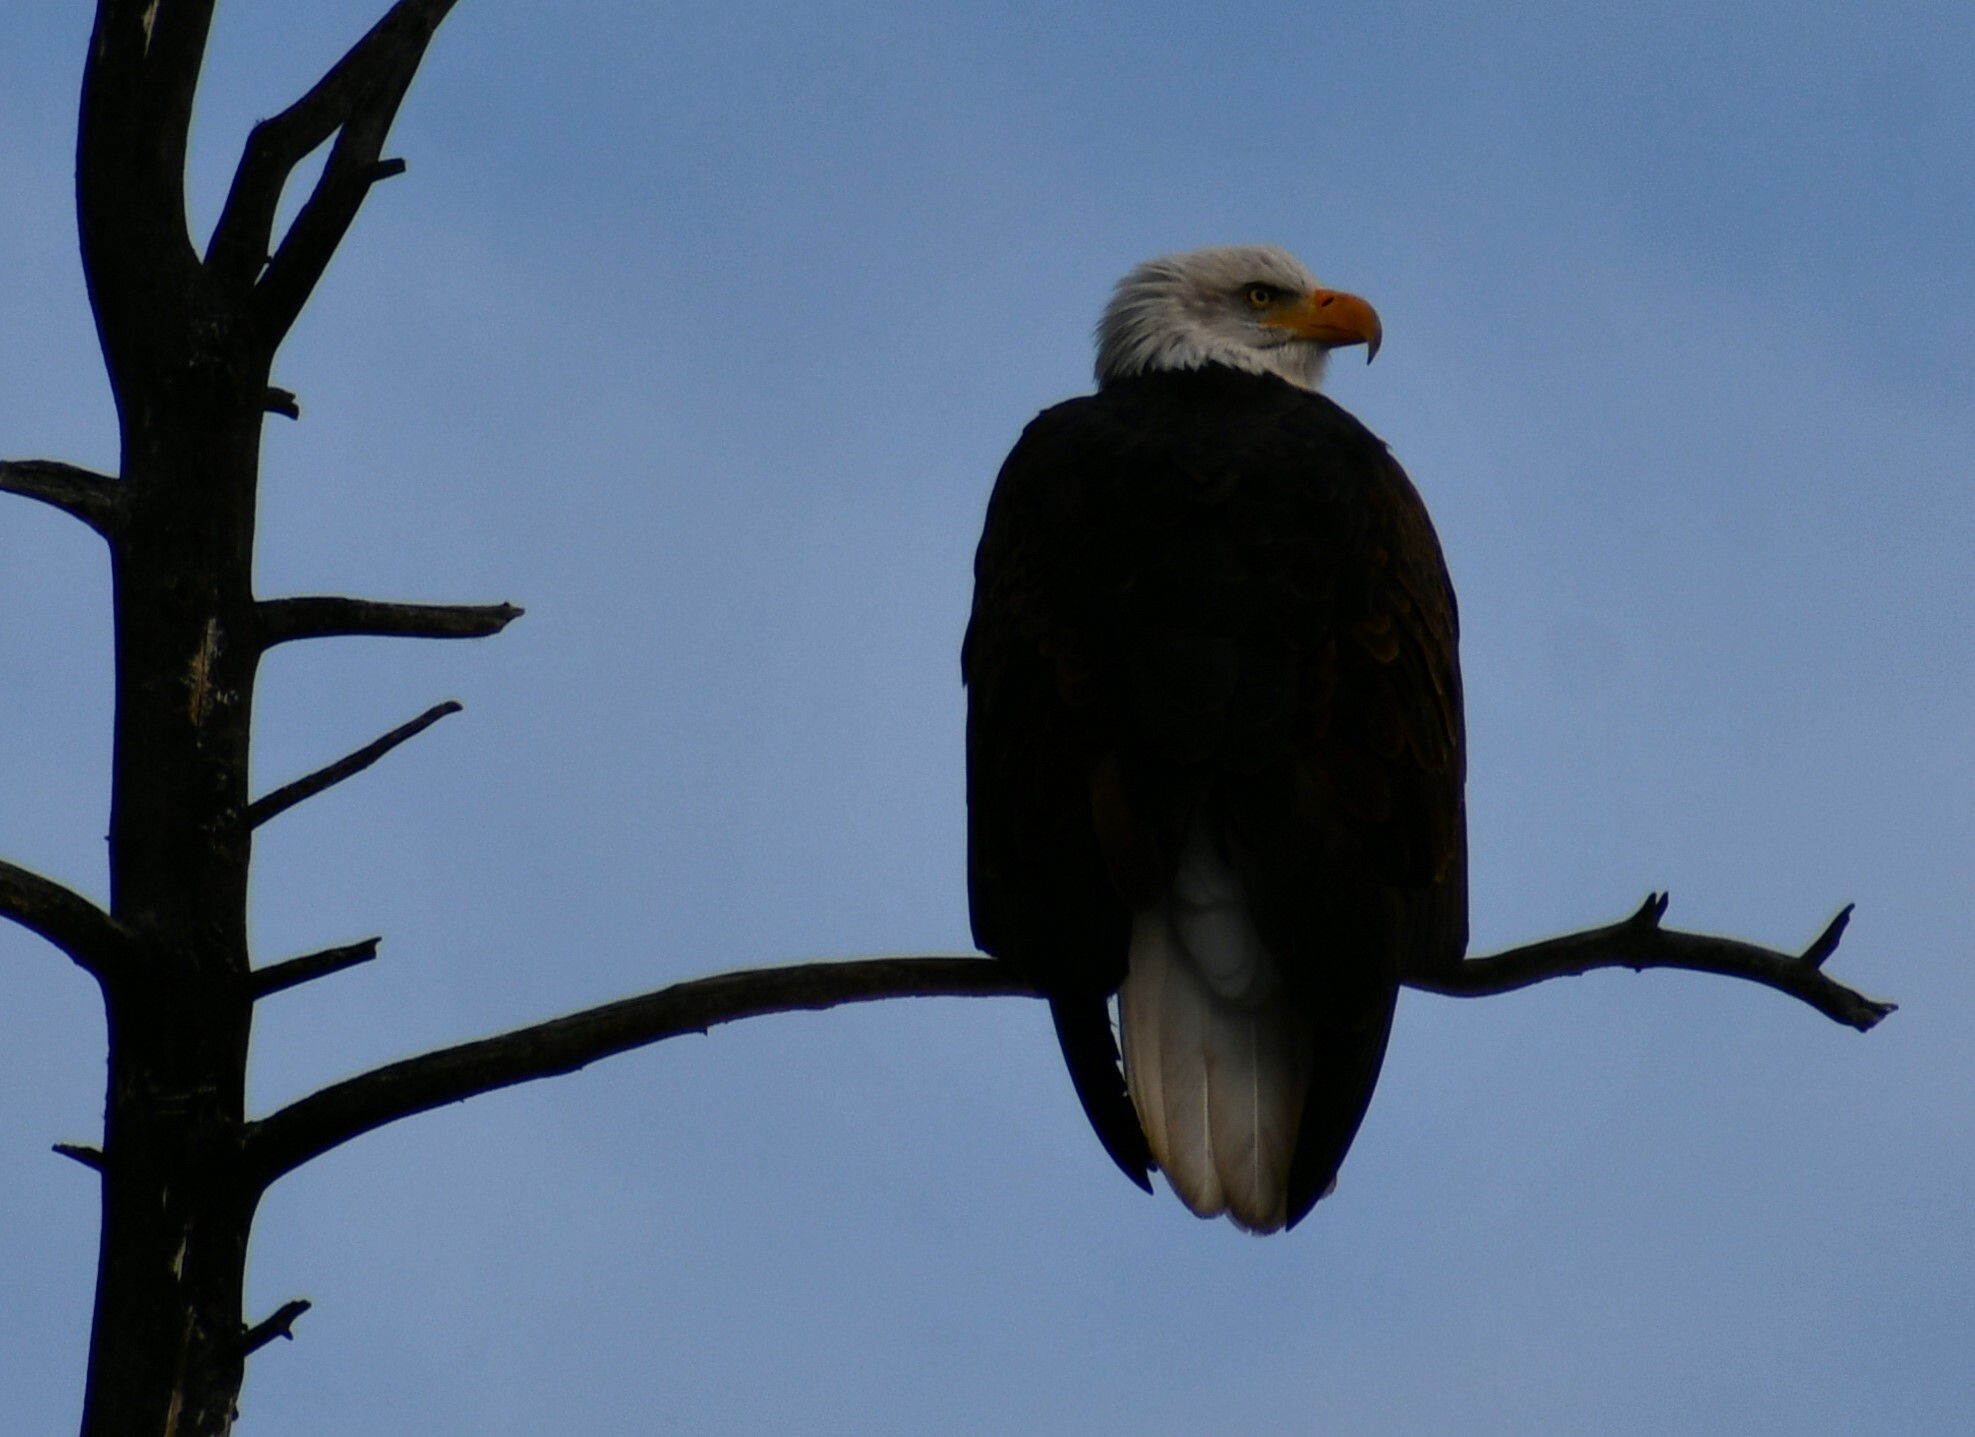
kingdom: Animalia
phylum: Chordata
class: Aves
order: Accipitriformes
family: Accipitridae
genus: Haliaeetus
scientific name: Haliaeetus leucocephalus
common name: Bald eagle
